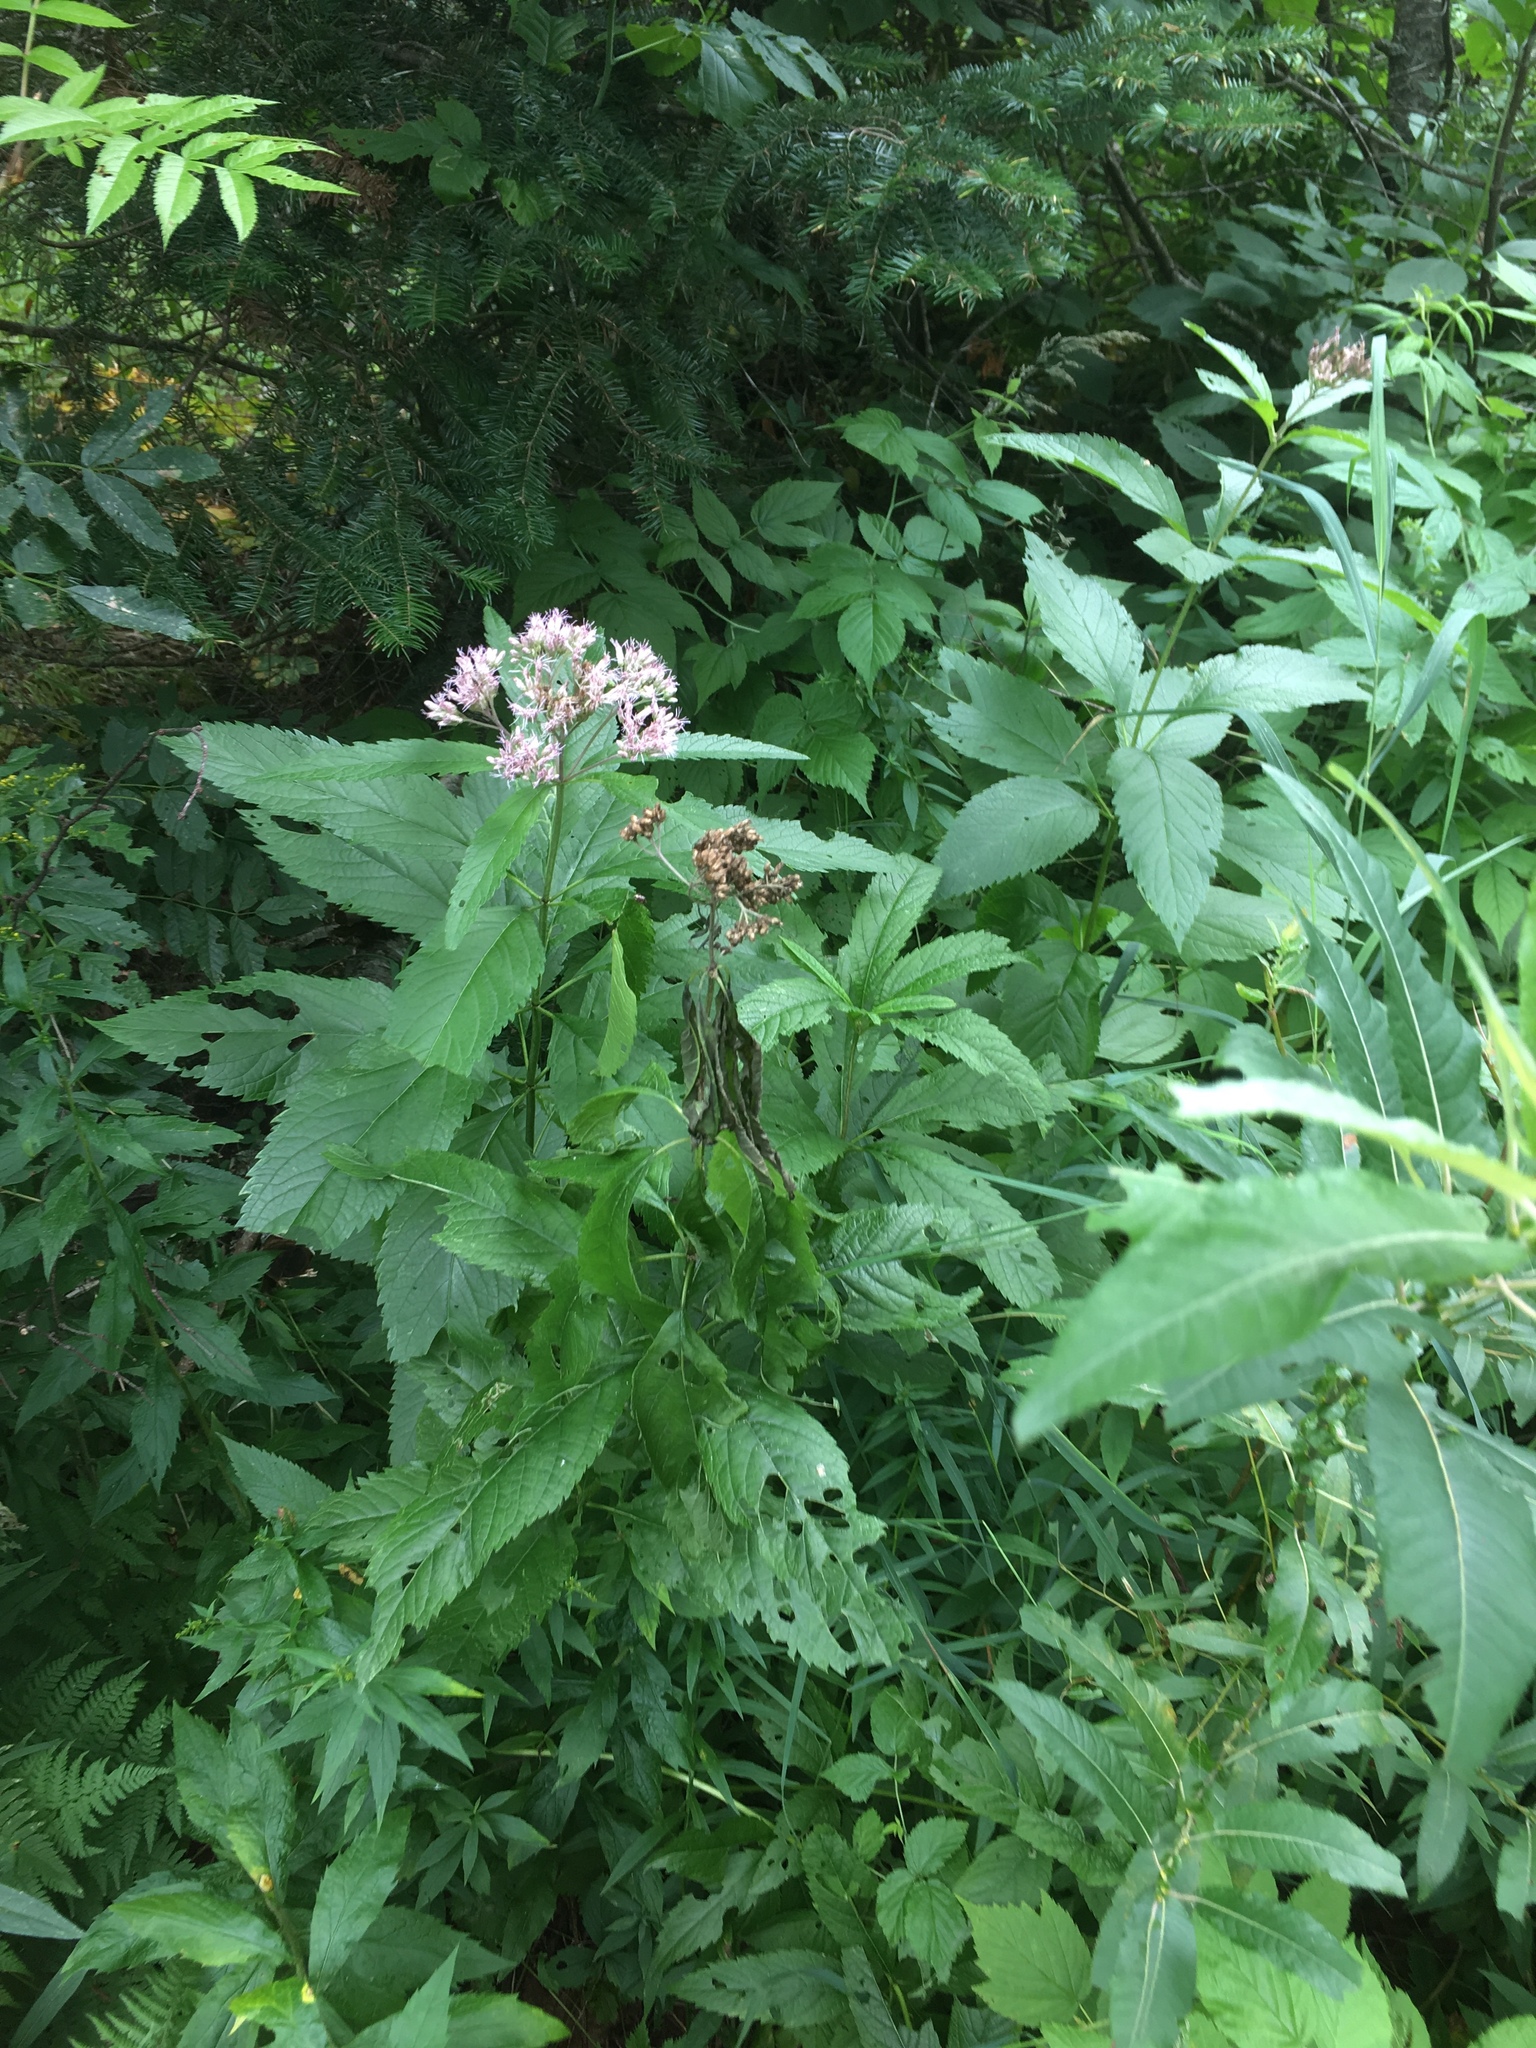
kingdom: Plantae
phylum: Tracheophyta
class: Magnoliopsida
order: Asterales
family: Asteraceae
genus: Eutrochium
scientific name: Eutrochium maculatum
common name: Spotted joe pye weed
